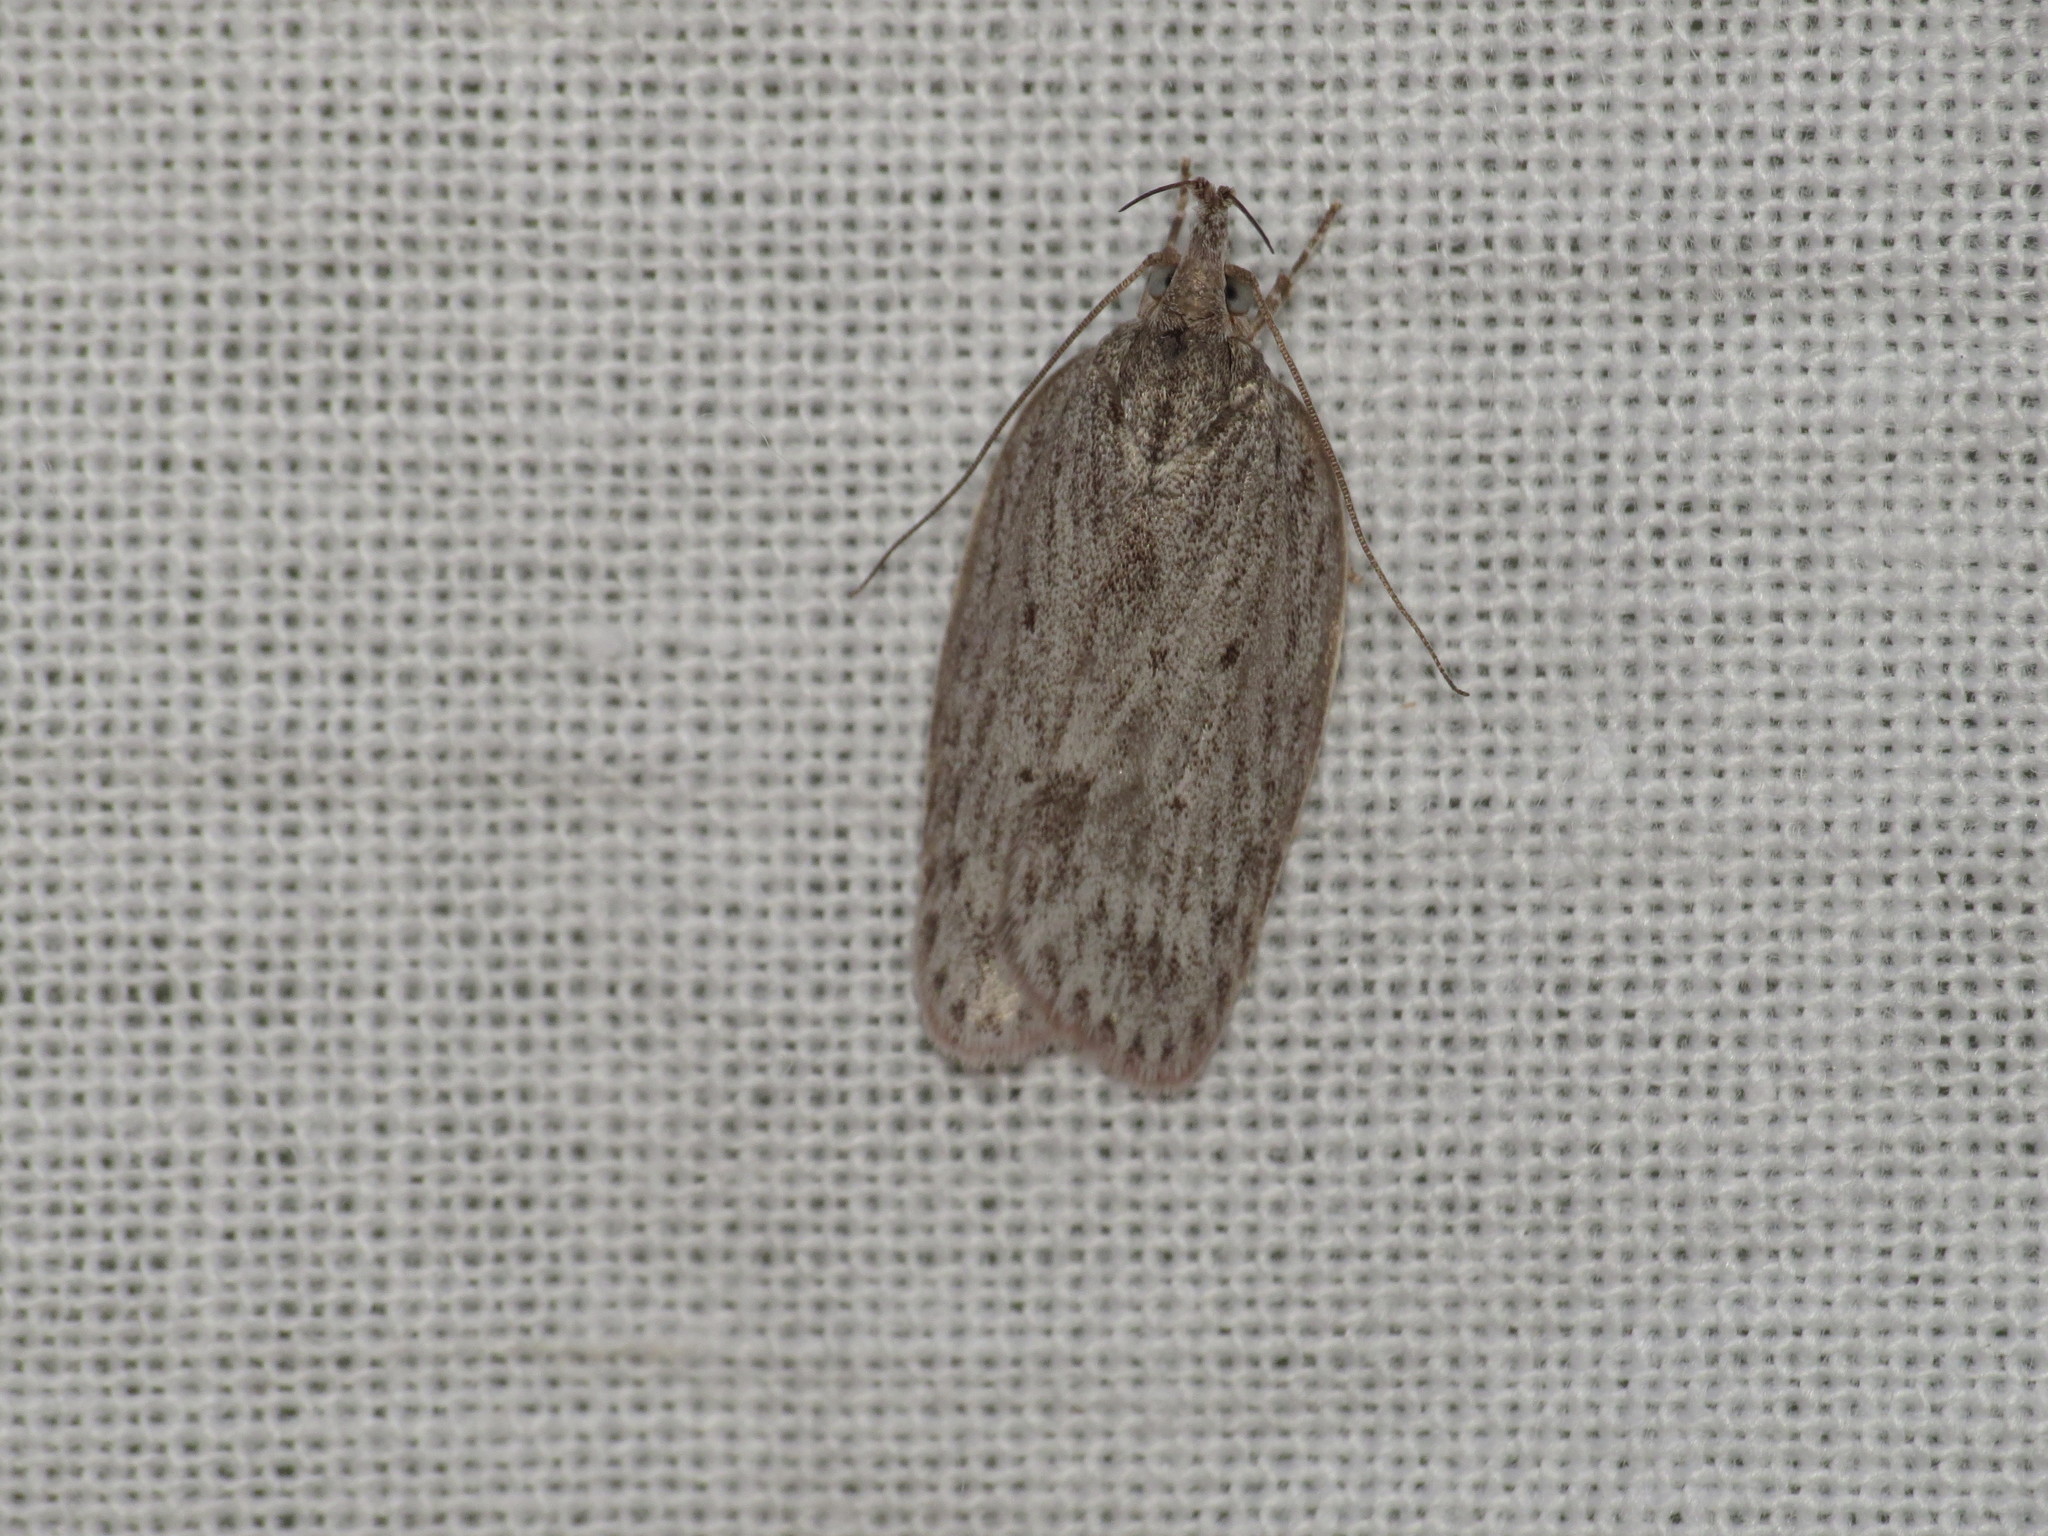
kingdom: Animalia
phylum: Arthropoda
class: Insecta
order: Lepidoptera
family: Depressariidae
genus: Pedois
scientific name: Pedois lewinella
